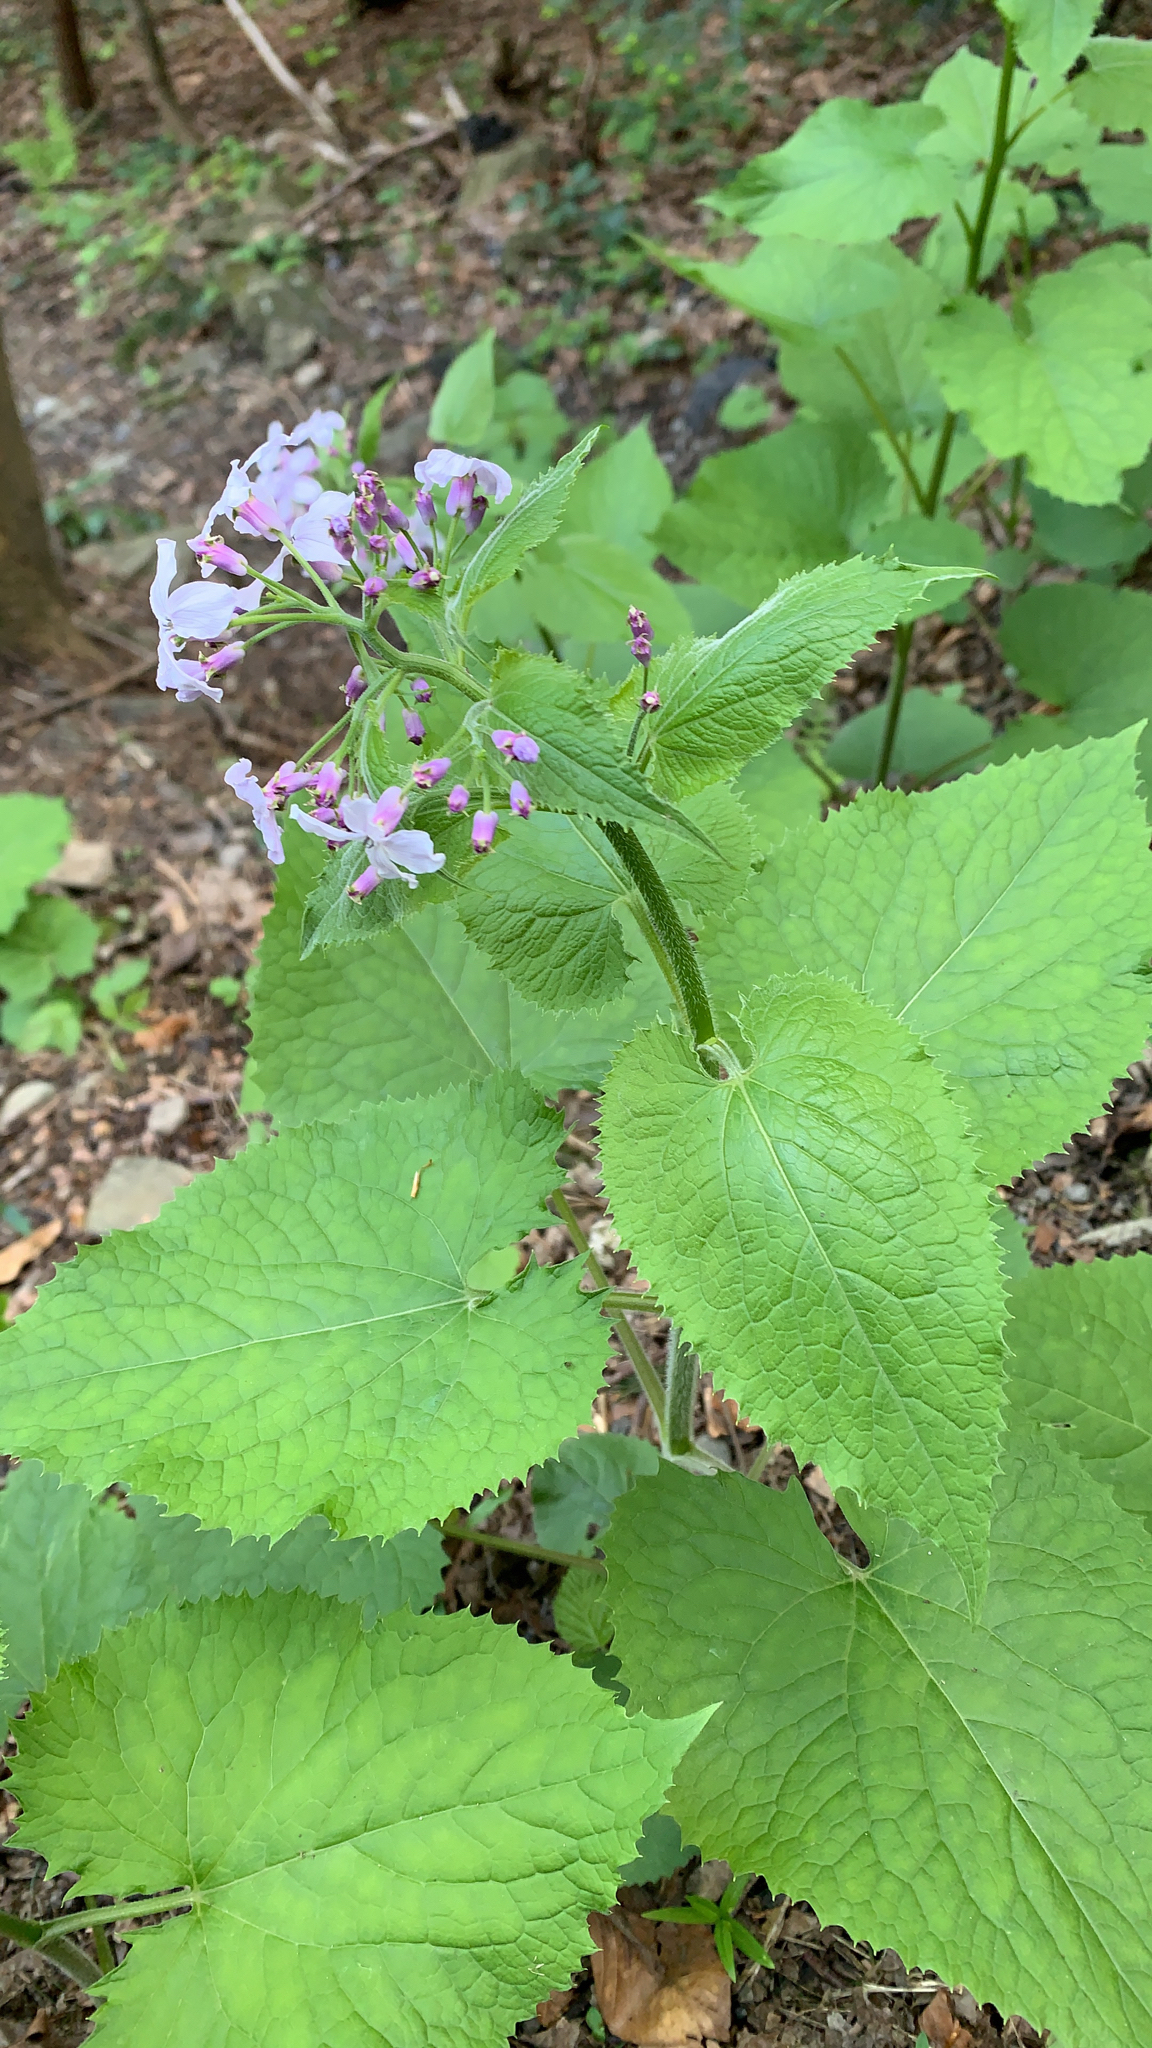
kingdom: Plantae
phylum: Tracheophyta
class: Magnoliopsida
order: Brassicales
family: Brassicaceae
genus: Lunaria
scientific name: Lunaria rediviva
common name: Perennial honesty
